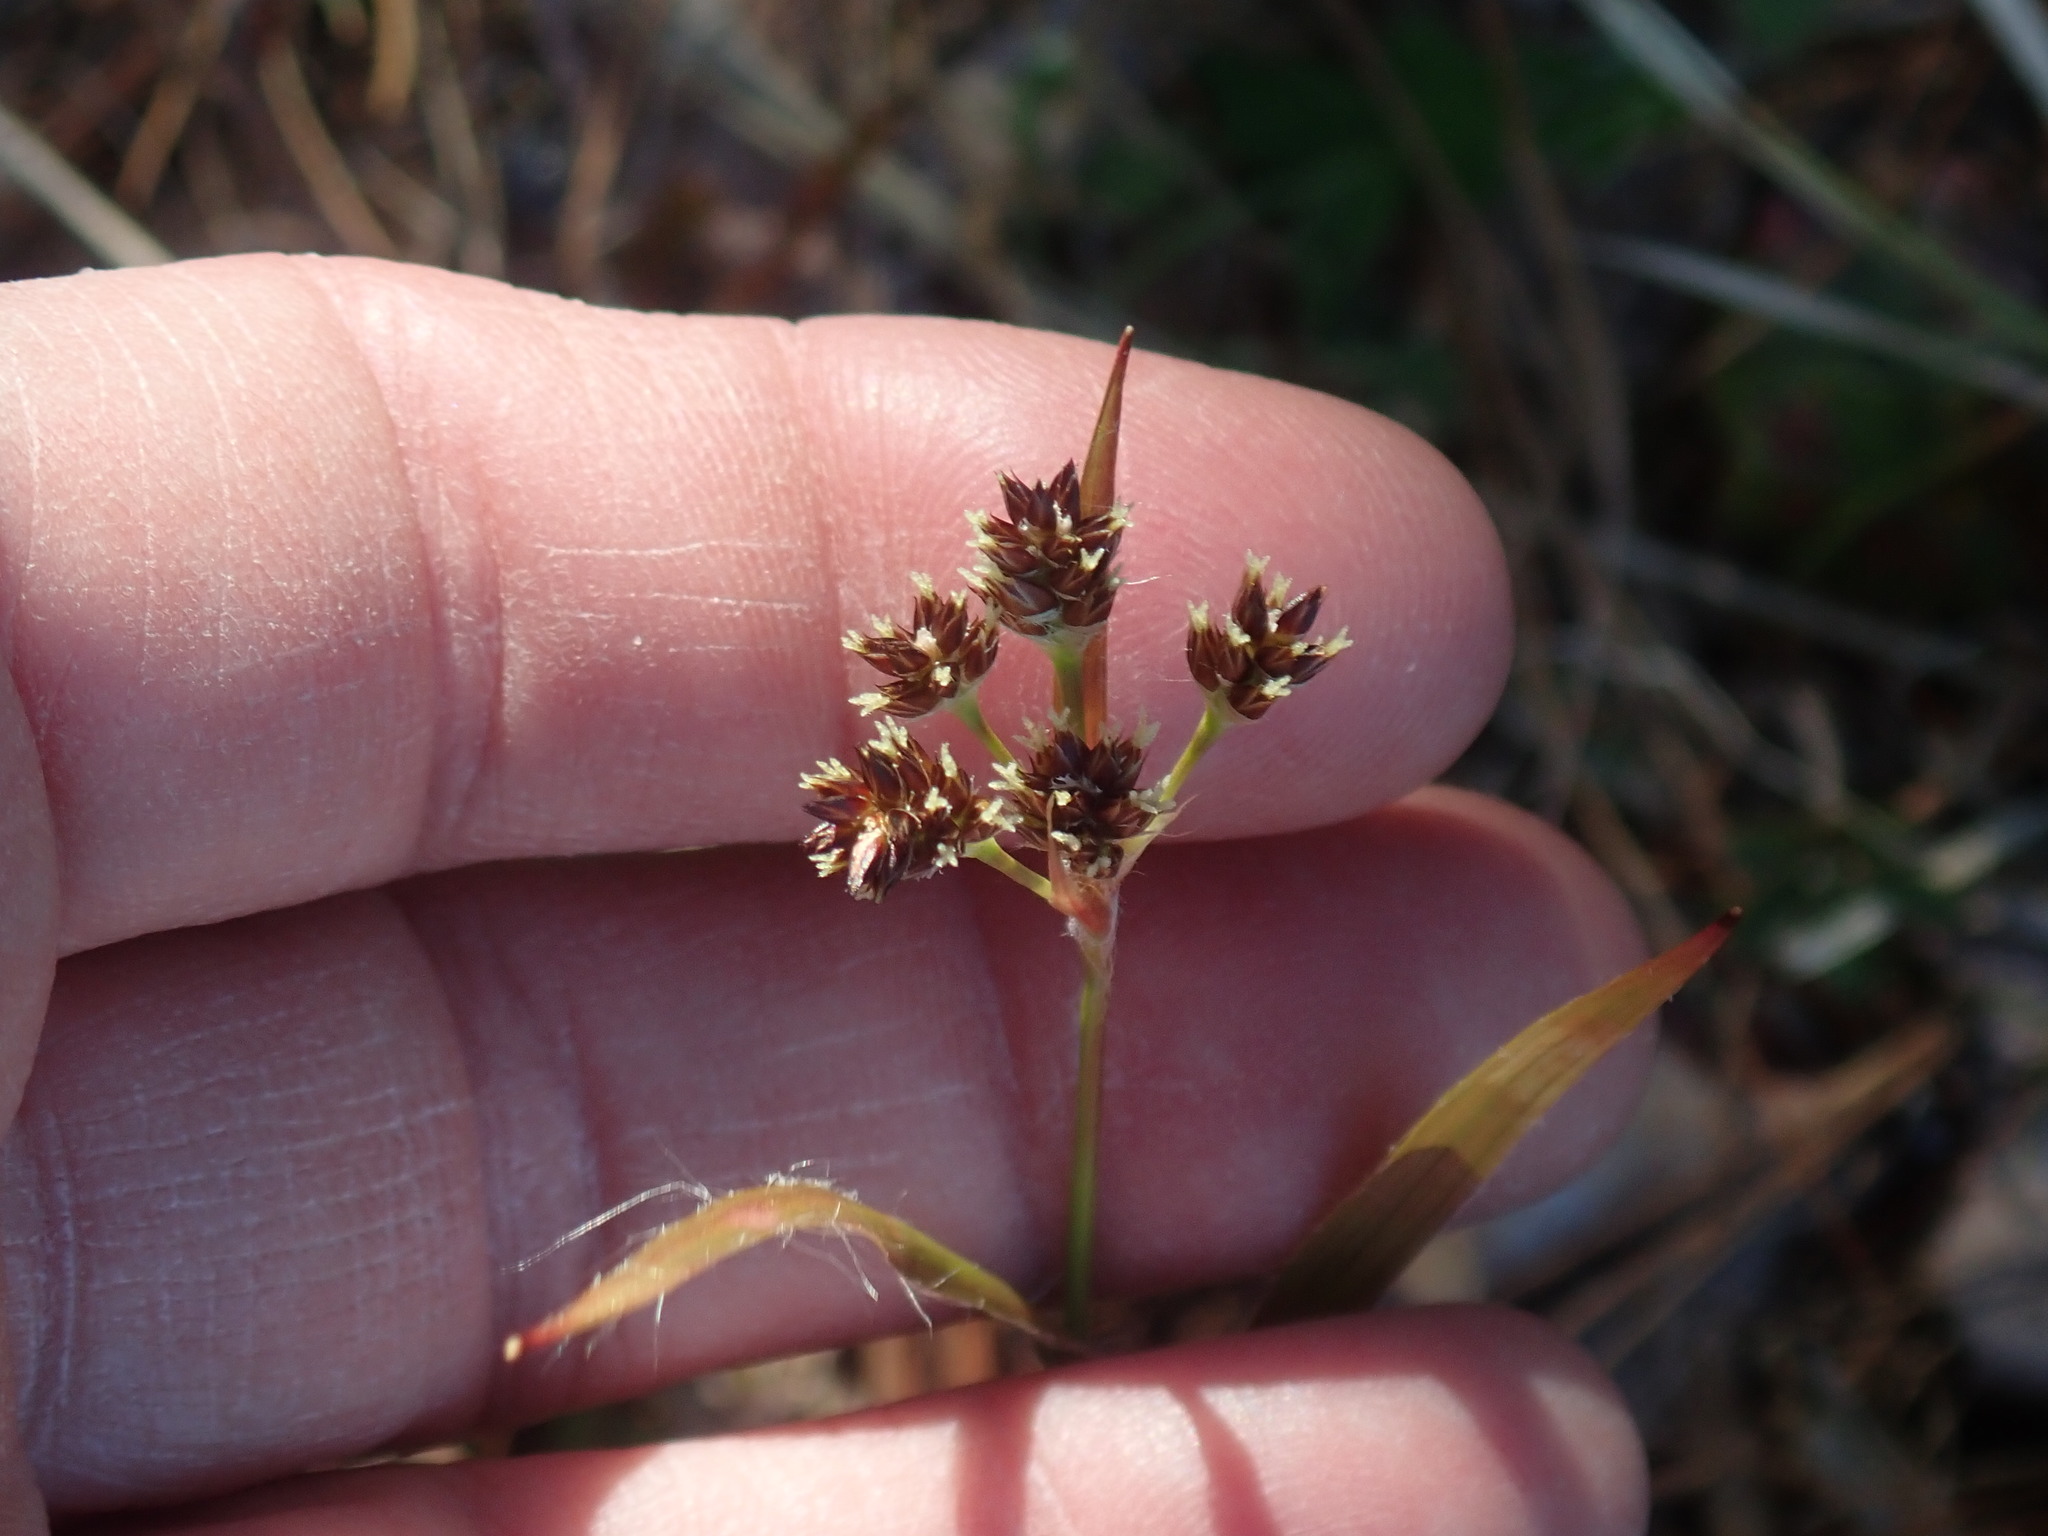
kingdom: Plantae
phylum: Tracheophyta
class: Liliopsida
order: Poales
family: Juncaceae
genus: Luzula
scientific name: Luzula multiflora
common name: Heath wood-rush
